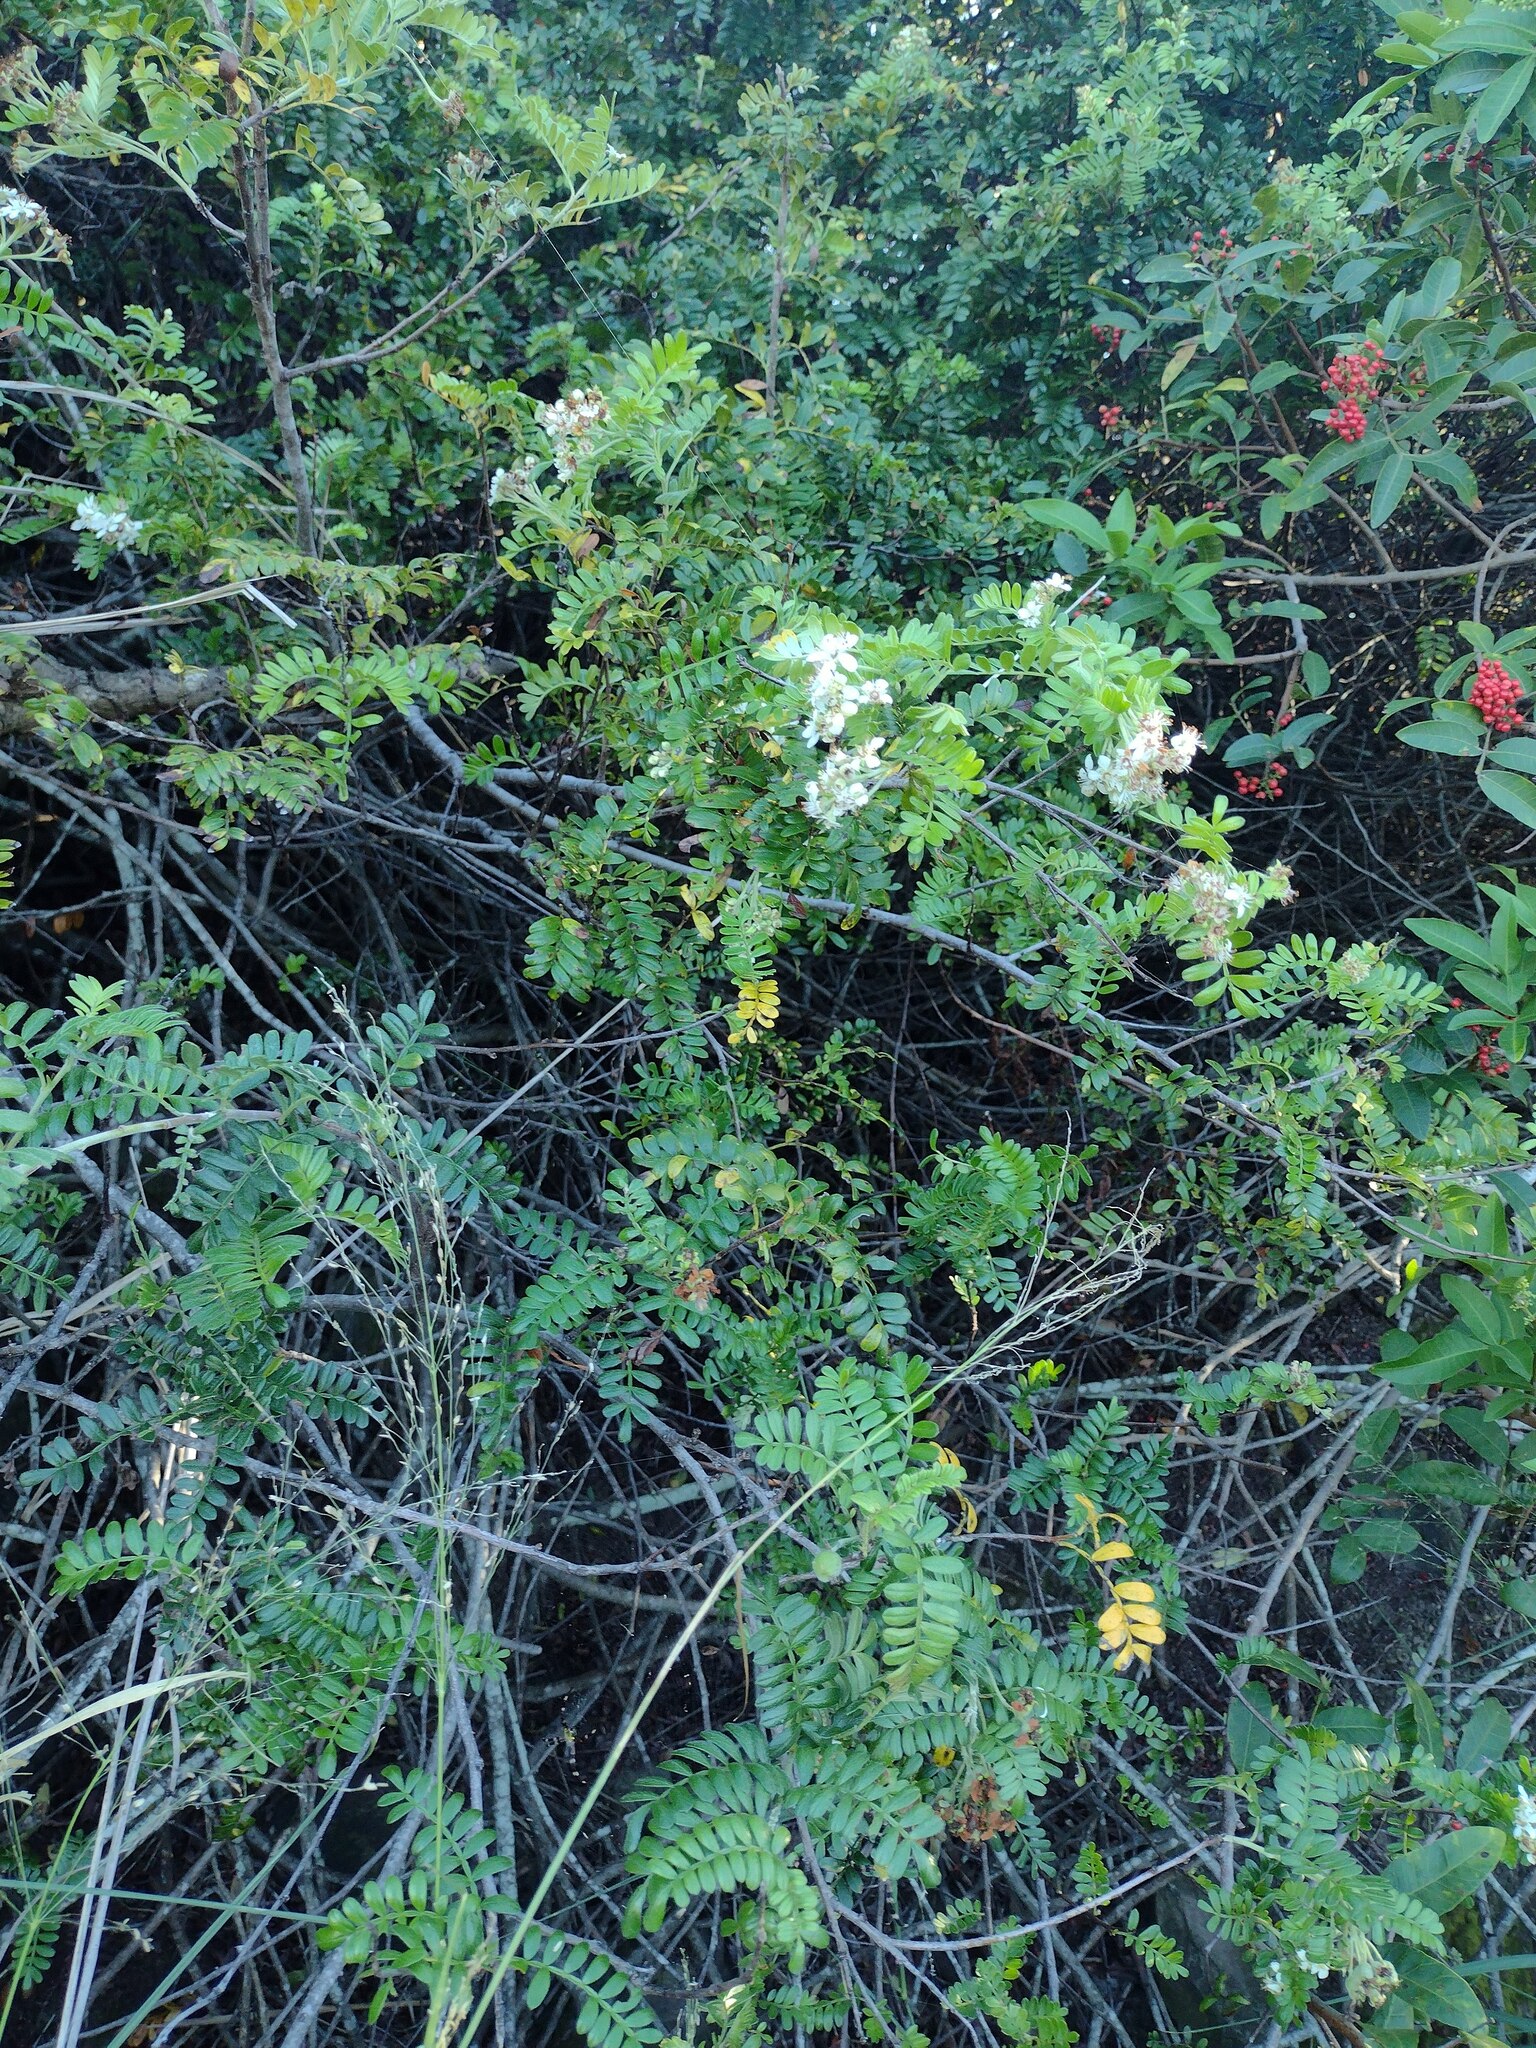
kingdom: Plantae
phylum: Tracheophyta
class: Magnoliopsida
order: Rosales
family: Rosaceae
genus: Osteomeles
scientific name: Osteomeles anthyllidifolia
